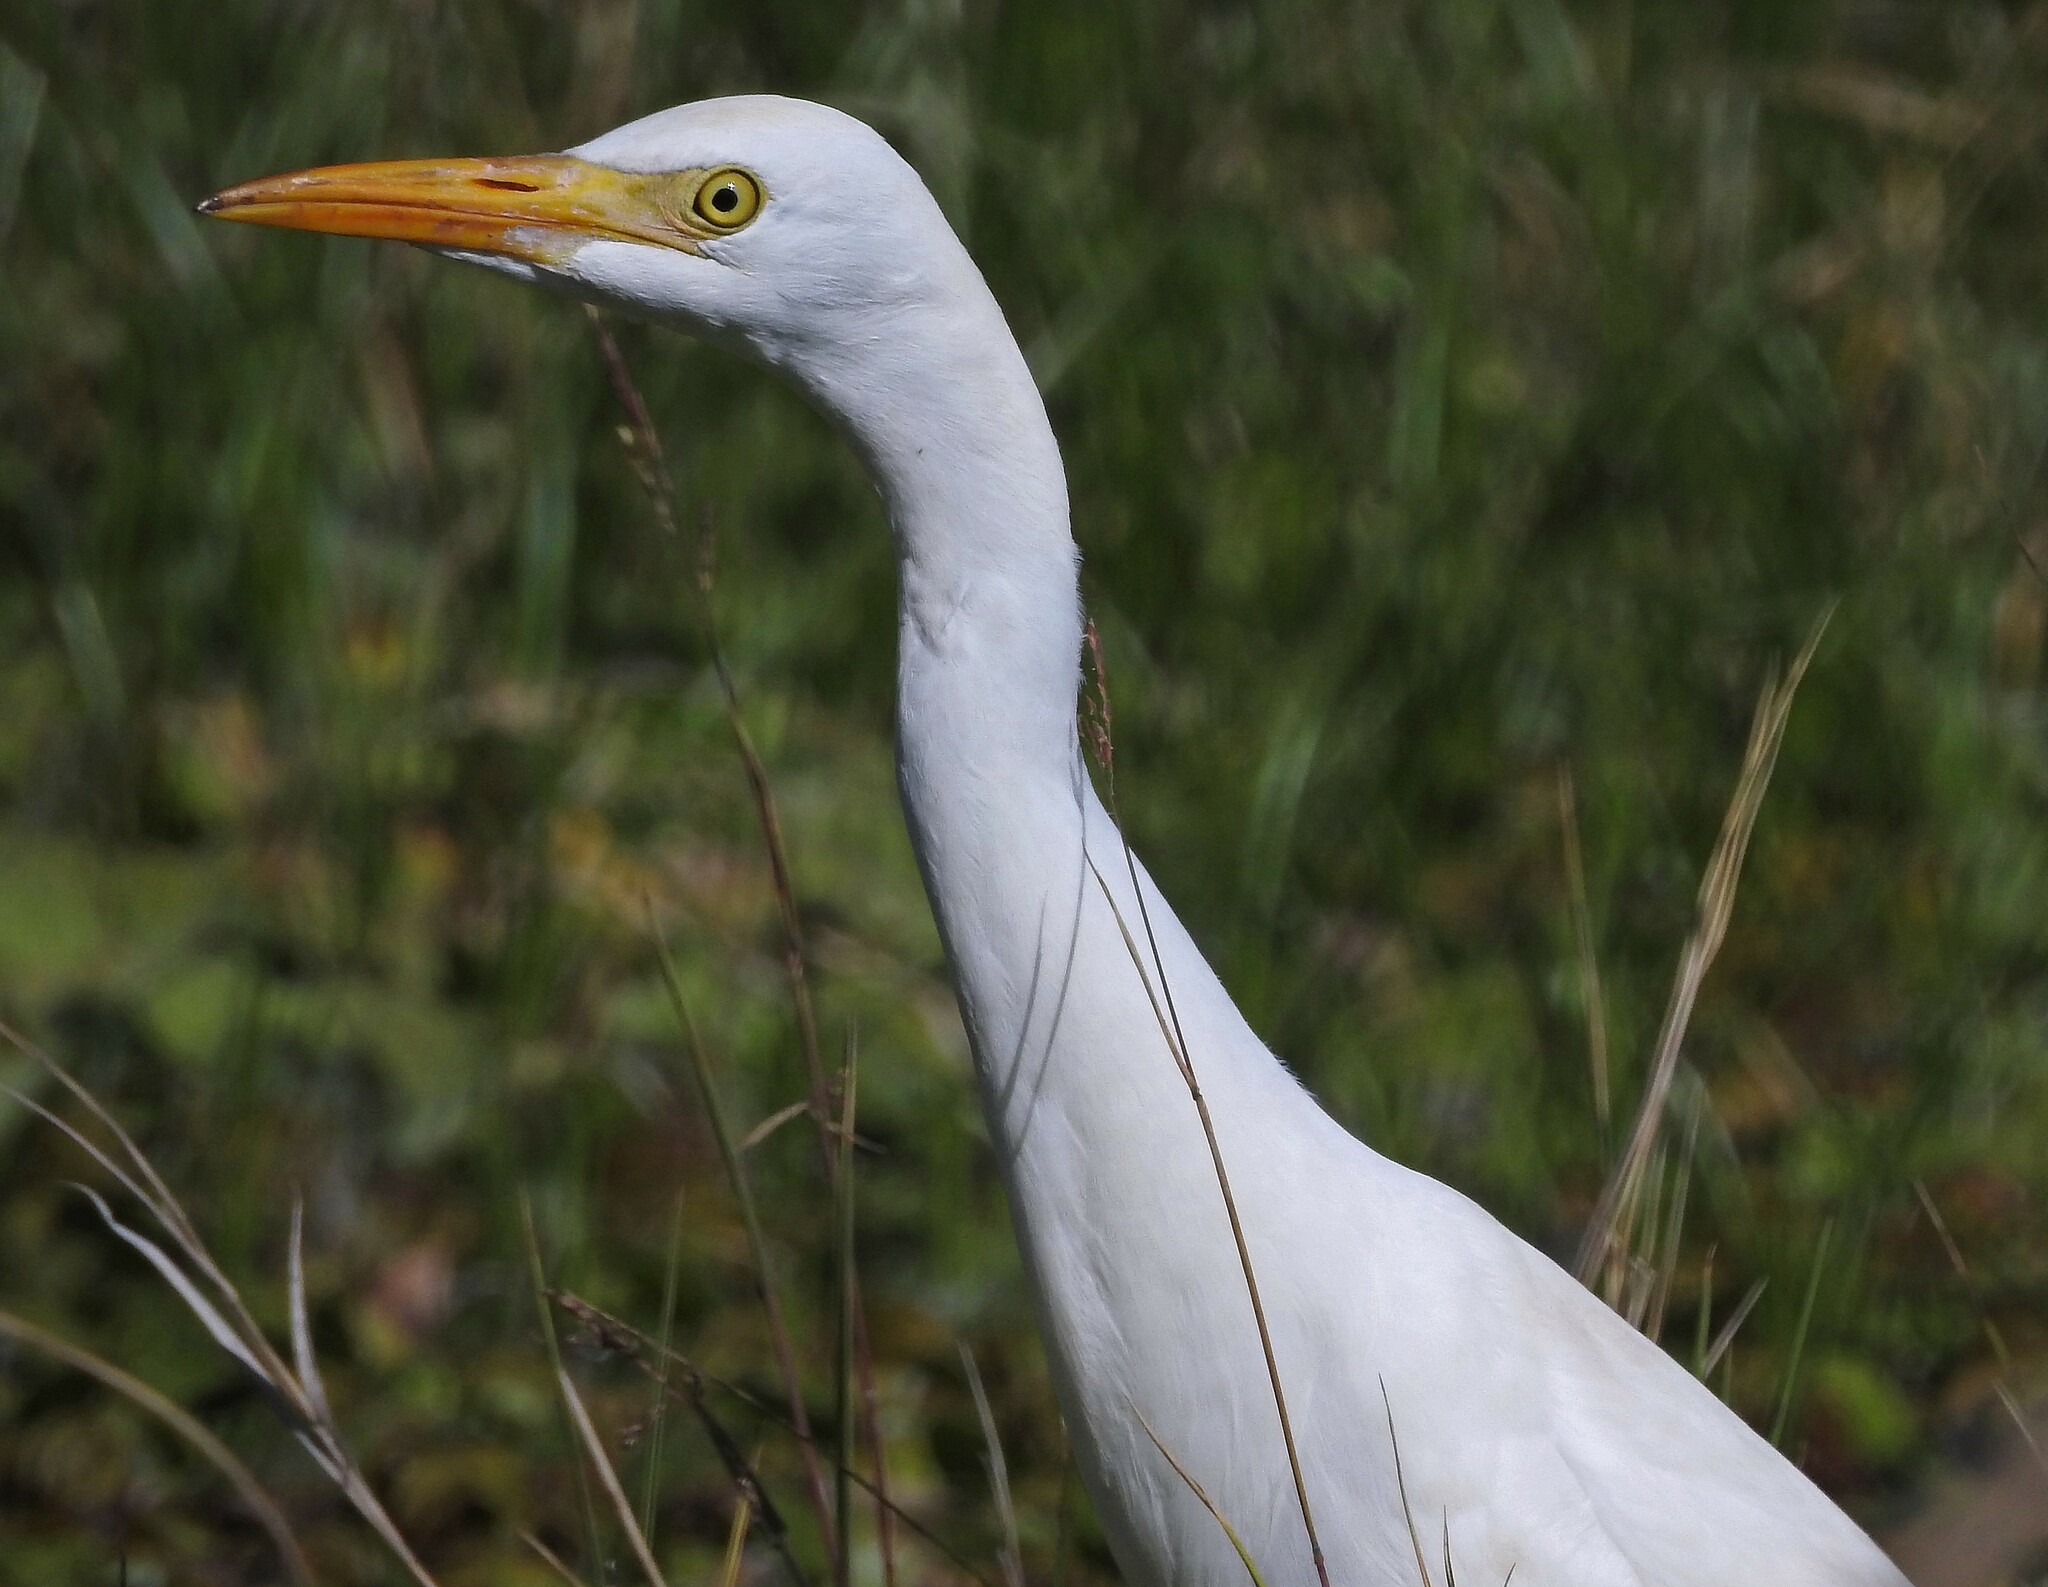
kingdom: Animalia
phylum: Chordata
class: Aves
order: Pelecaniformes
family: Ardeidae
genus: Bubulcus
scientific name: Bubulcus ibis
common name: Cattle egret
